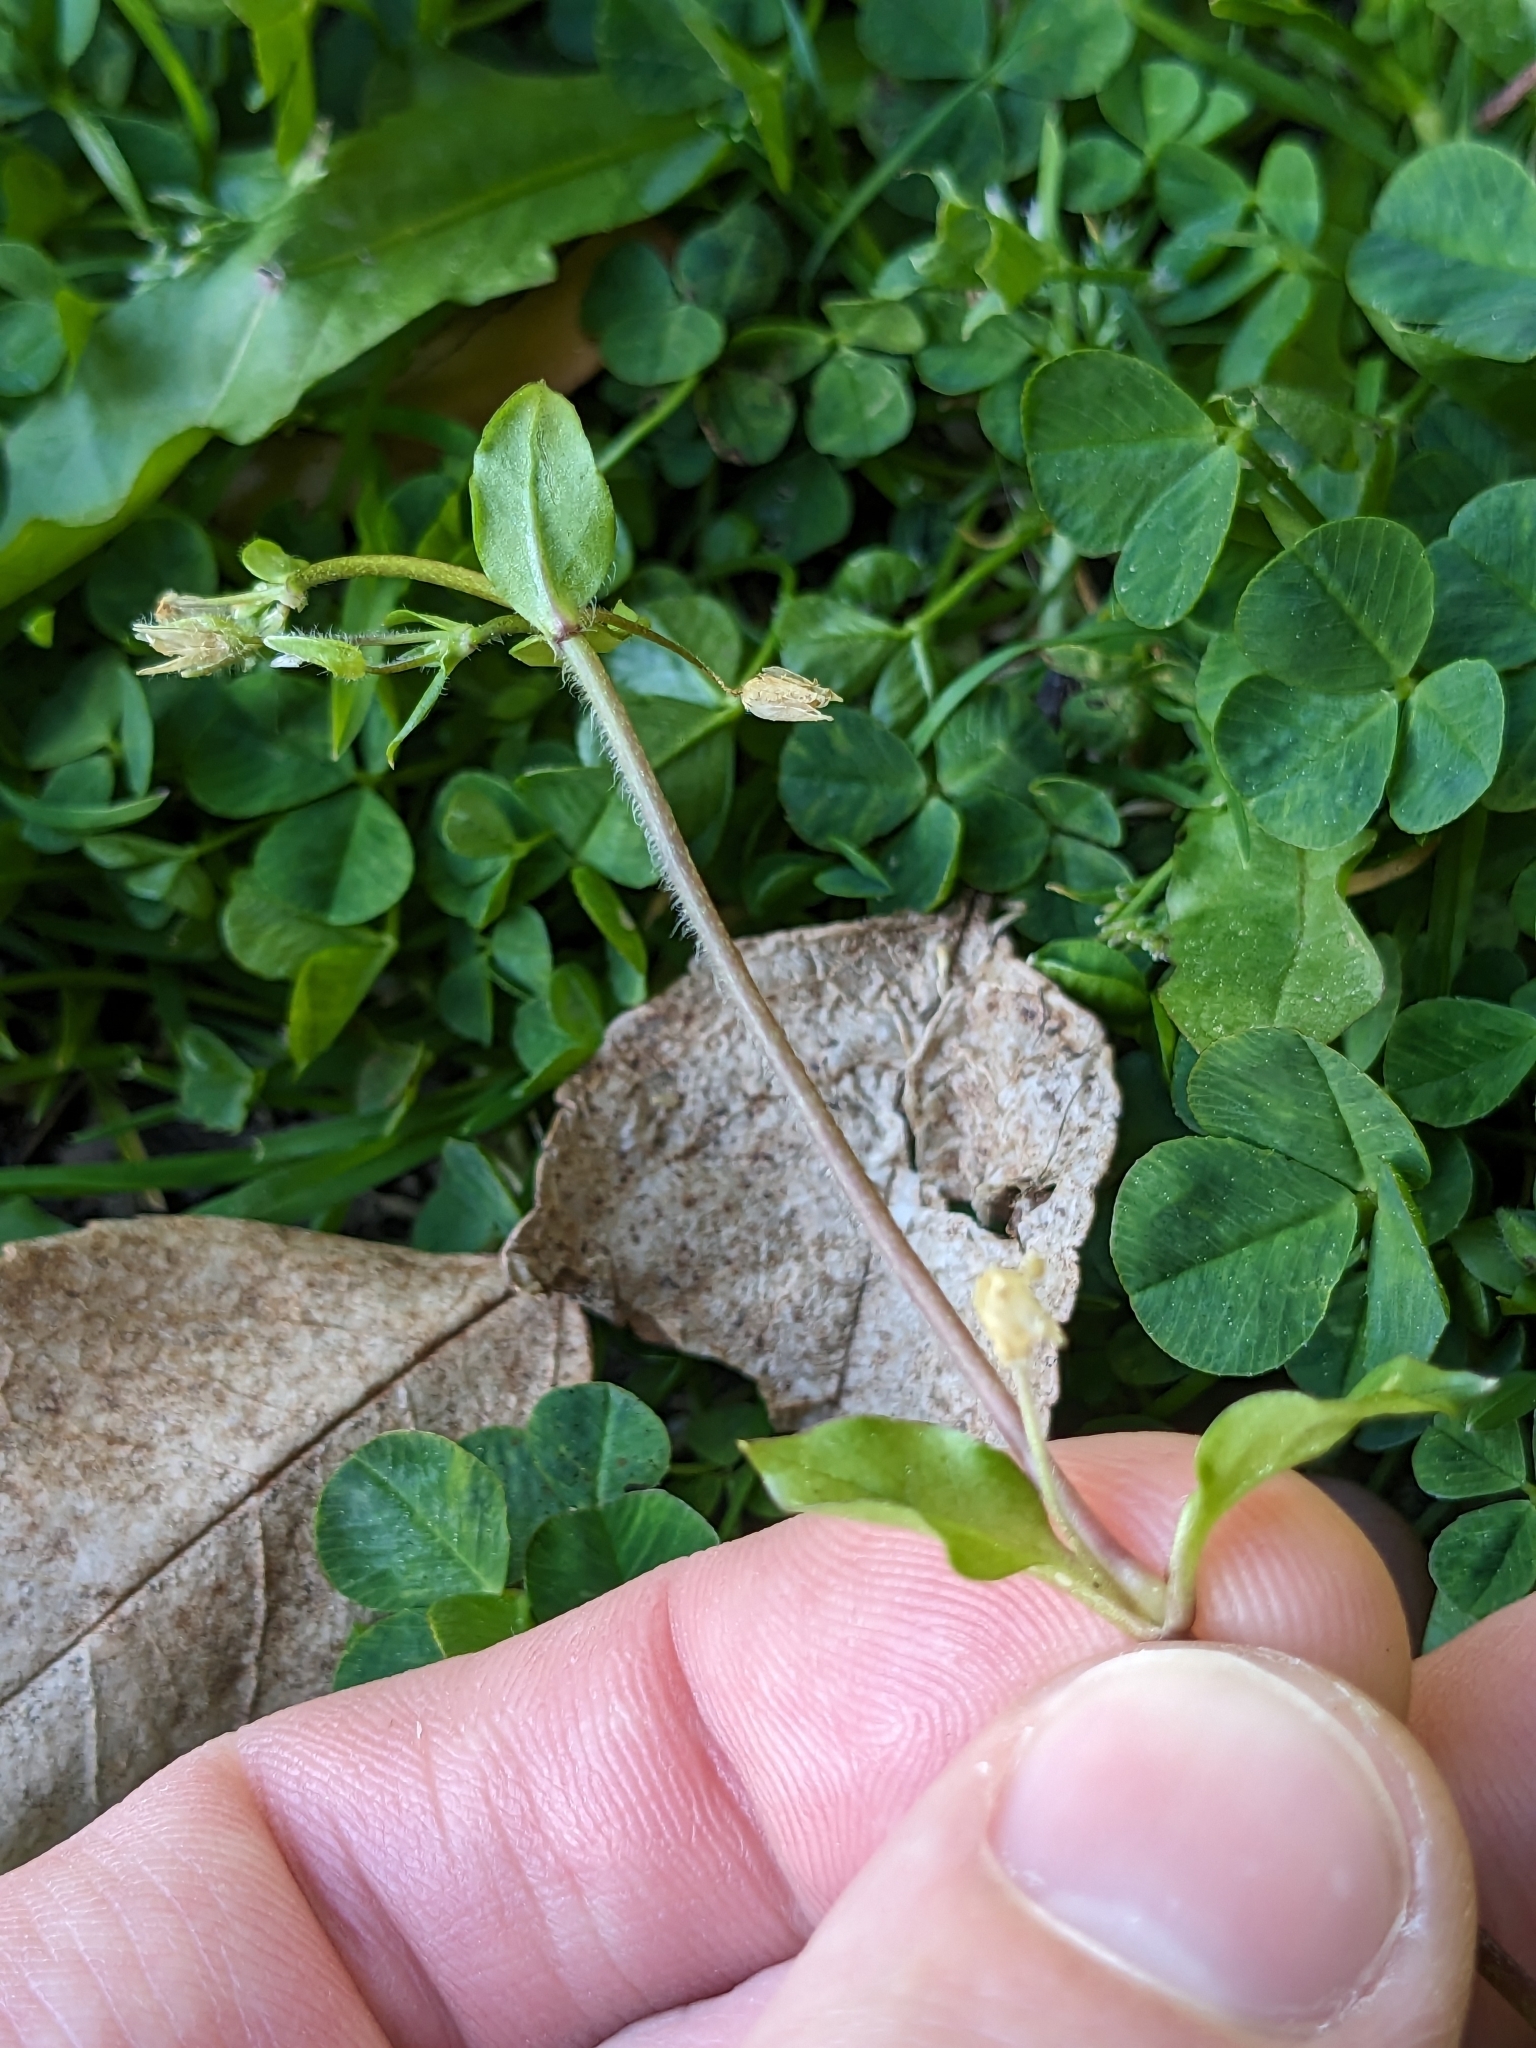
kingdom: Plantae
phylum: Tracheophyta
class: Magnoliopsida
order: Caryophyllales
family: Caryophyllaceae
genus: Stellaria
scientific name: Stellaria media
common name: Common chickweed
